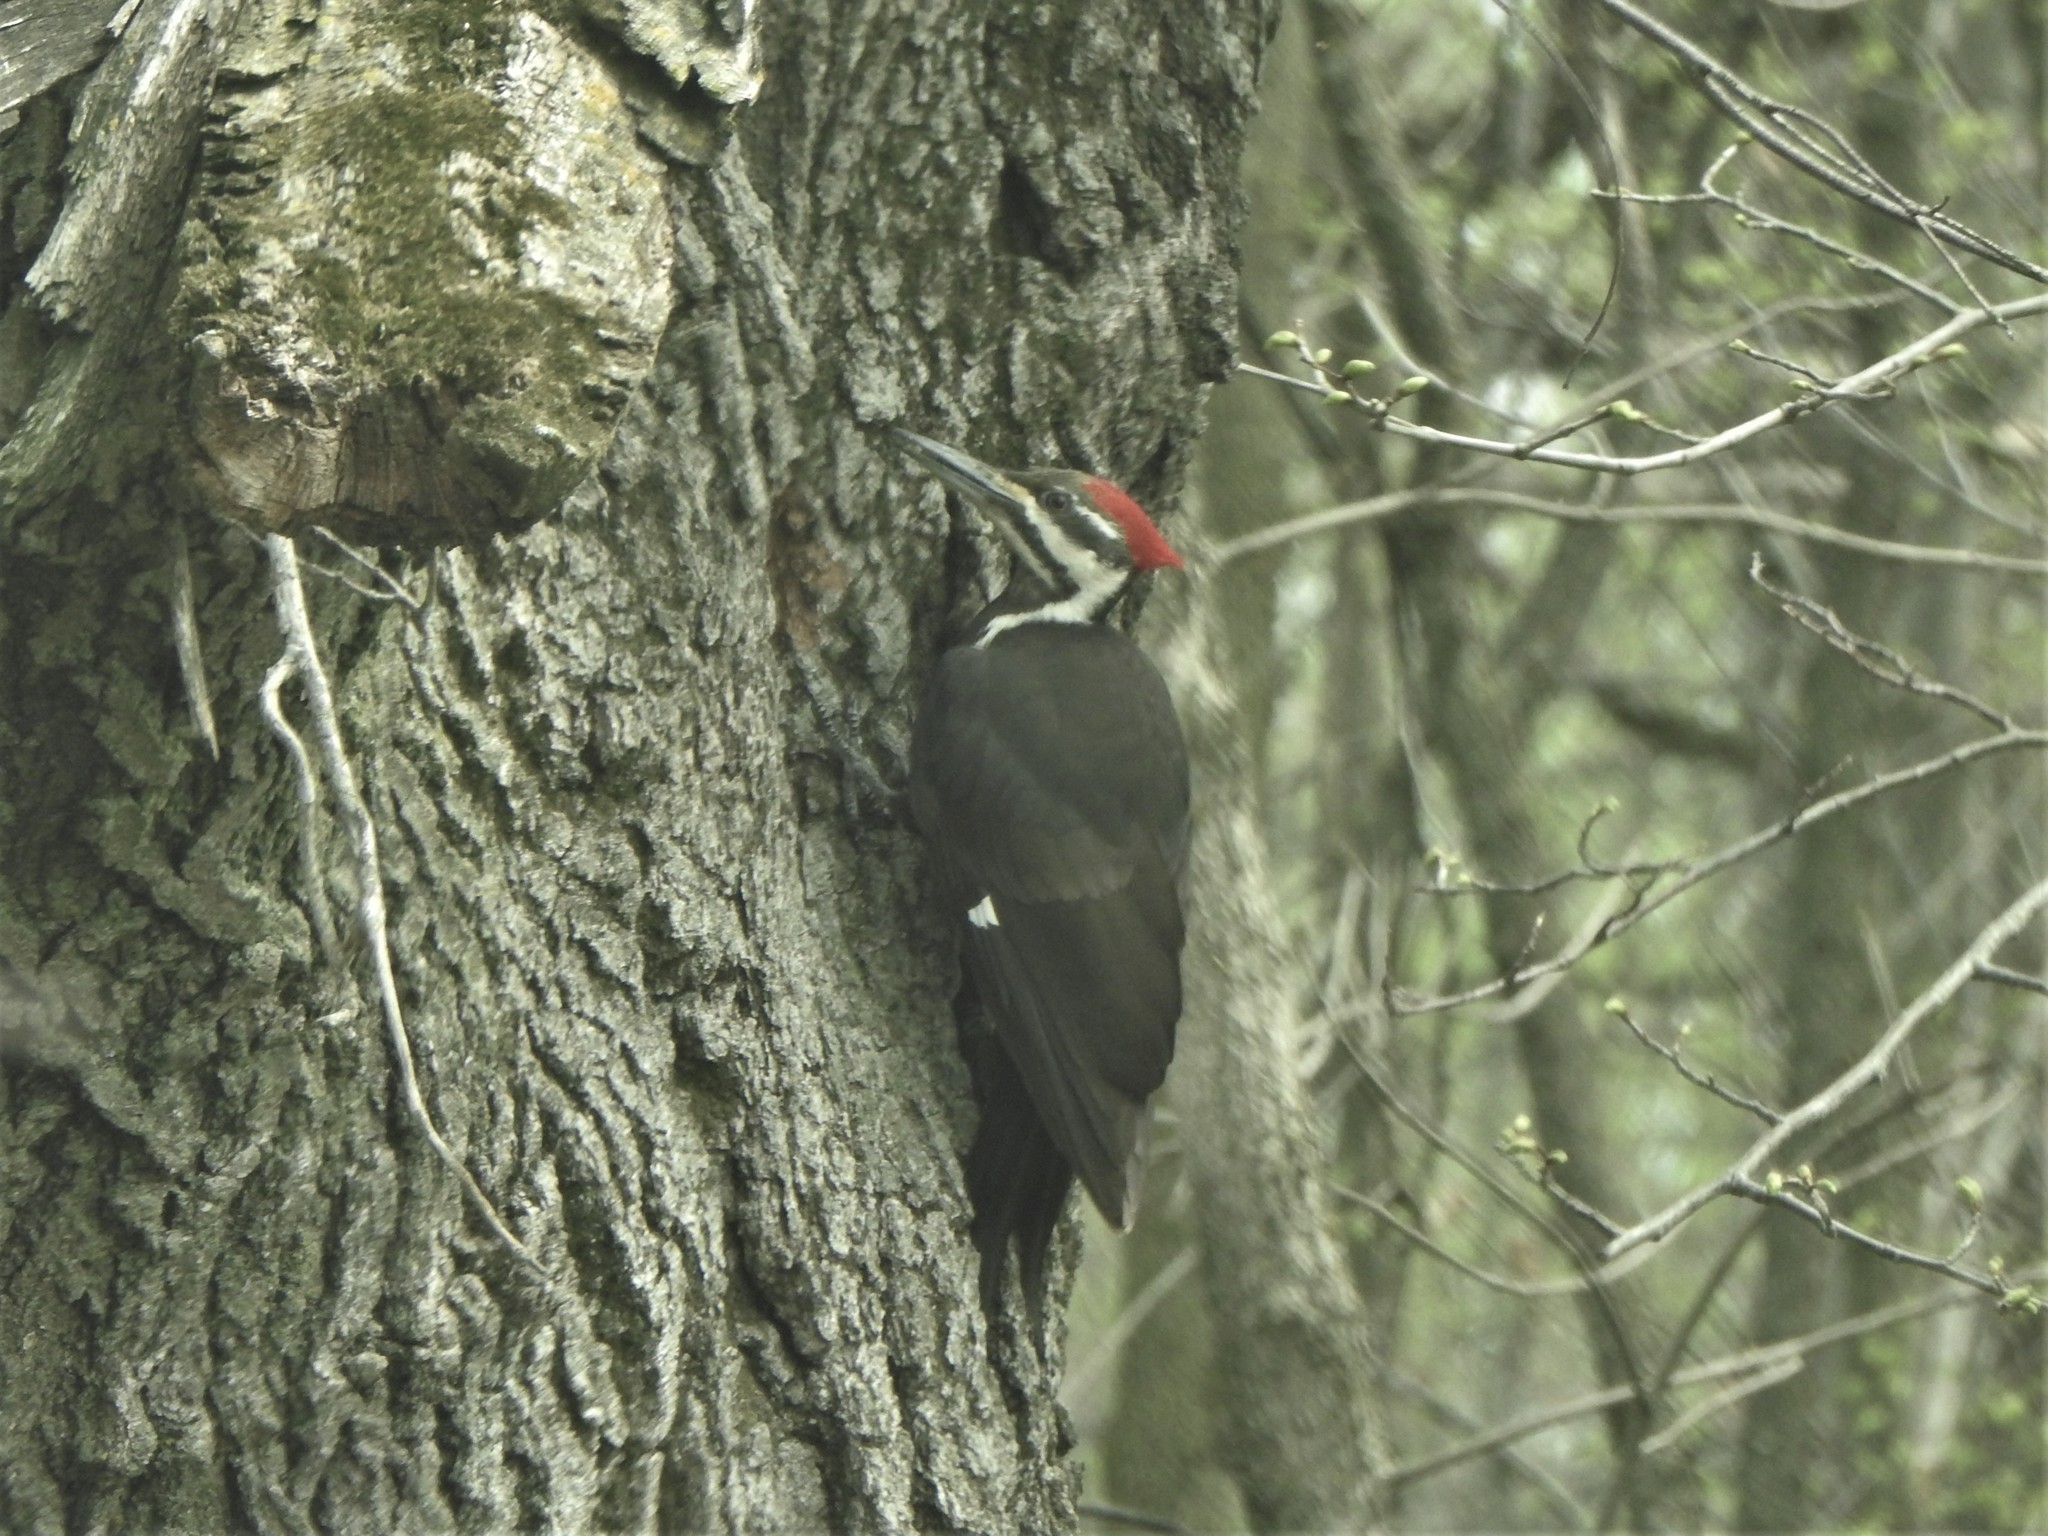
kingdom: Animalia
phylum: Chordata
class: Aves
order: Piciformes
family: Picidae
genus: Dryocopus
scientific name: Dryocopus pileatus
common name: Pileated woodpecker
